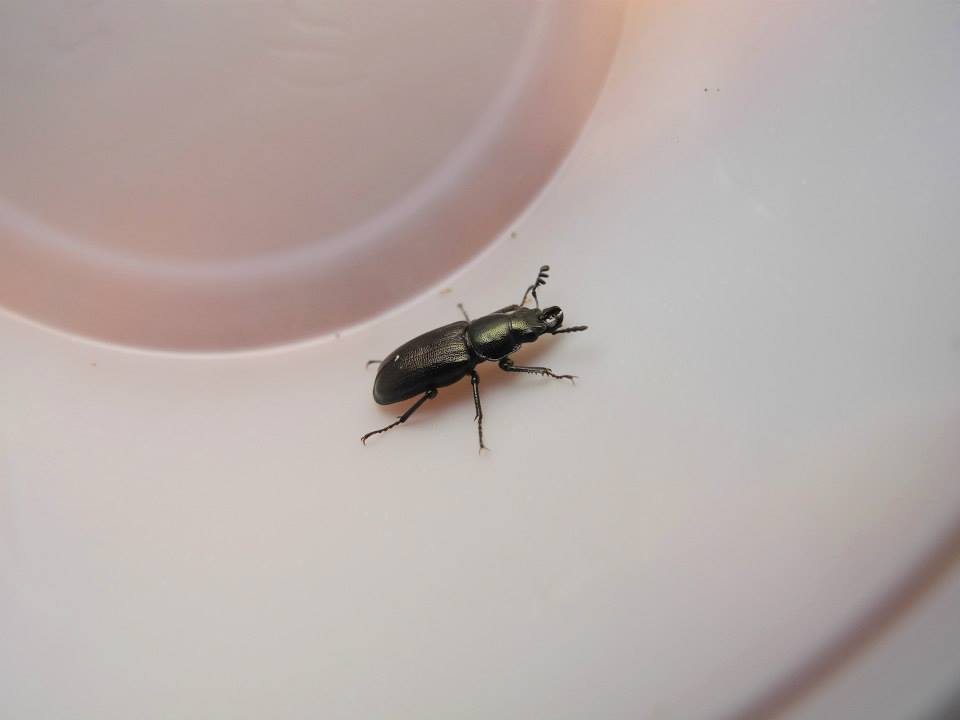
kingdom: Animalia
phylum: Arthropoda
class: Insecta
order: Coleoptera
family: Lucanidae
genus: Platycerus
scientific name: Platycerus quercus
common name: Oak stag beetle
